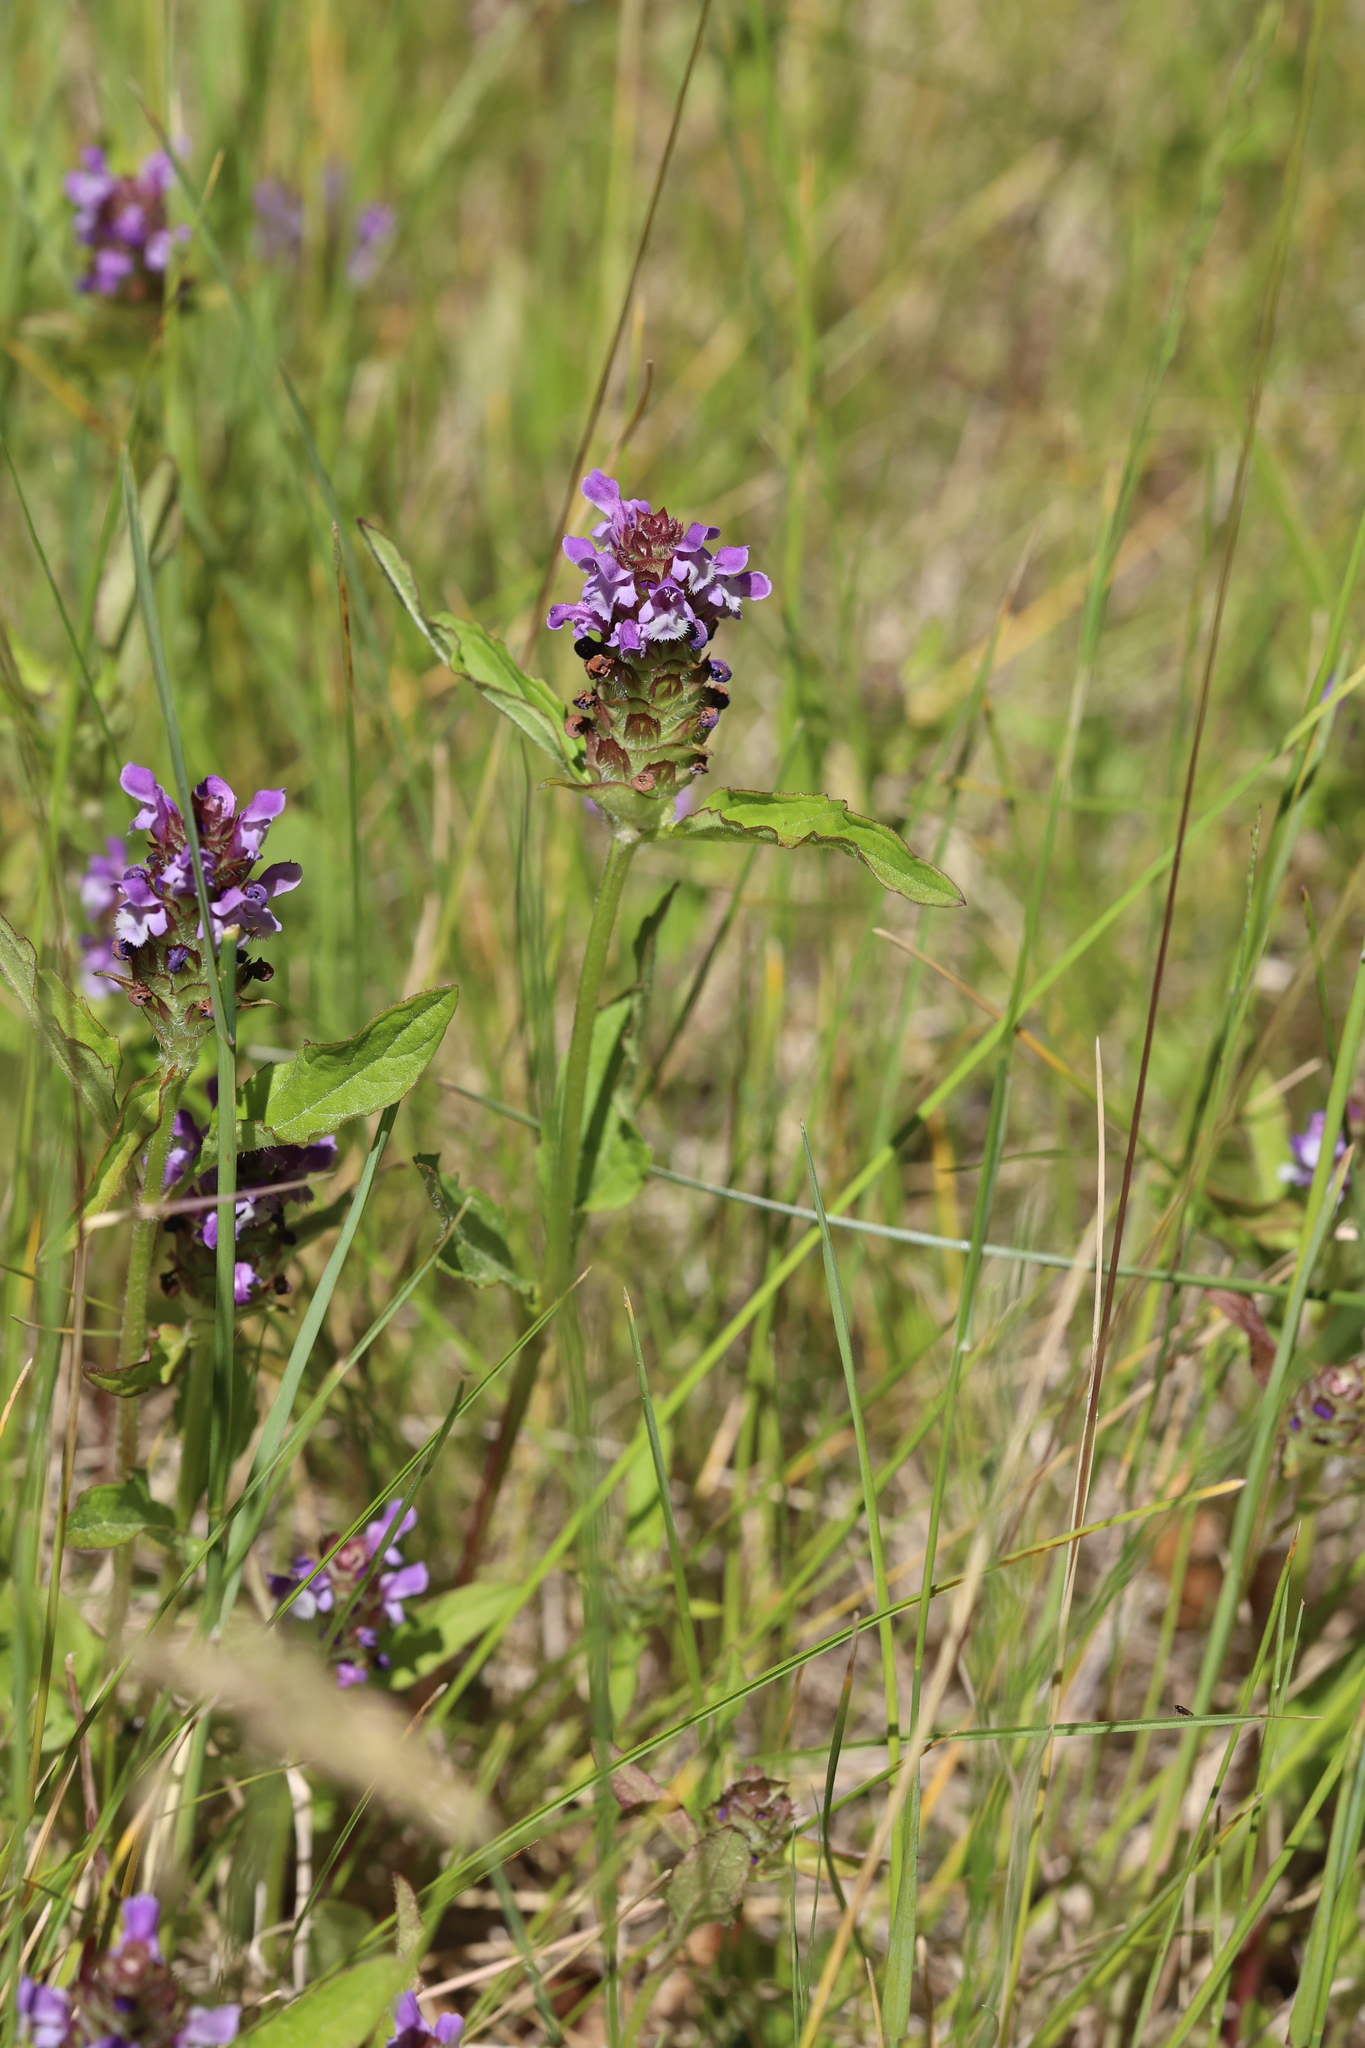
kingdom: Plantae
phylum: Tracheophyta
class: Magnoliopsida
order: Lamiales
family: Lamiaceae
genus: Prunella
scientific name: Prunella vulgaris
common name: Heal-all
